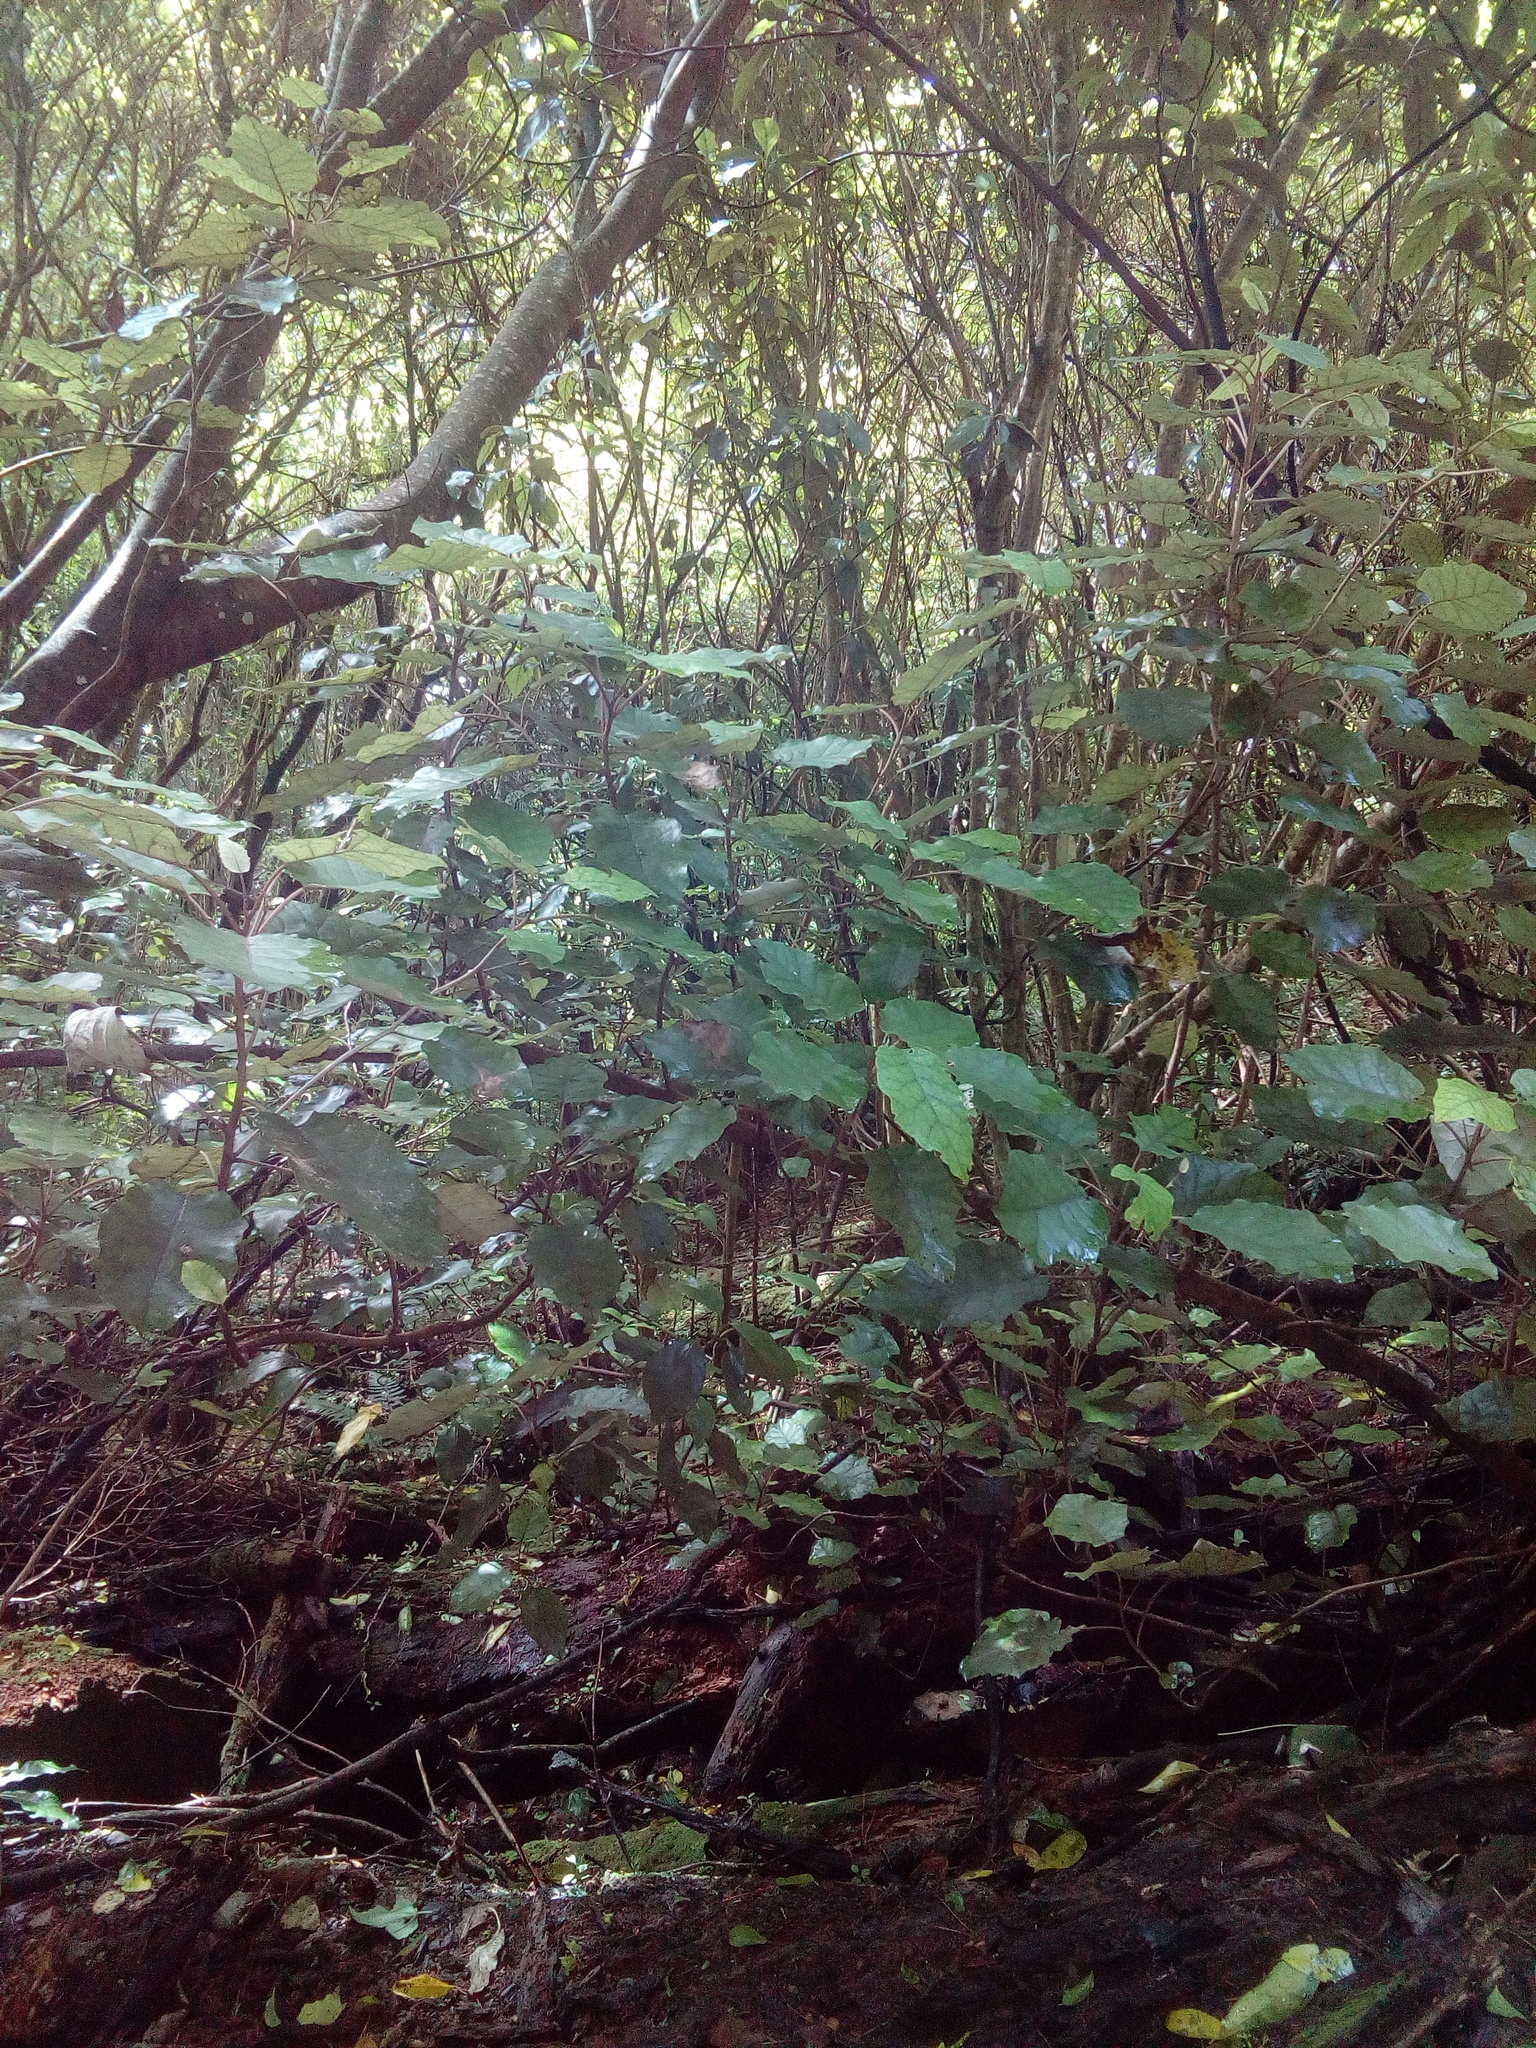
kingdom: Plantae
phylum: Tracheophyta
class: Magnoliopsida
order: Asterales
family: Asteraceae
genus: Brachyglottis
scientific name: Brachyglottis repanda
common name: Hedge ragwort
